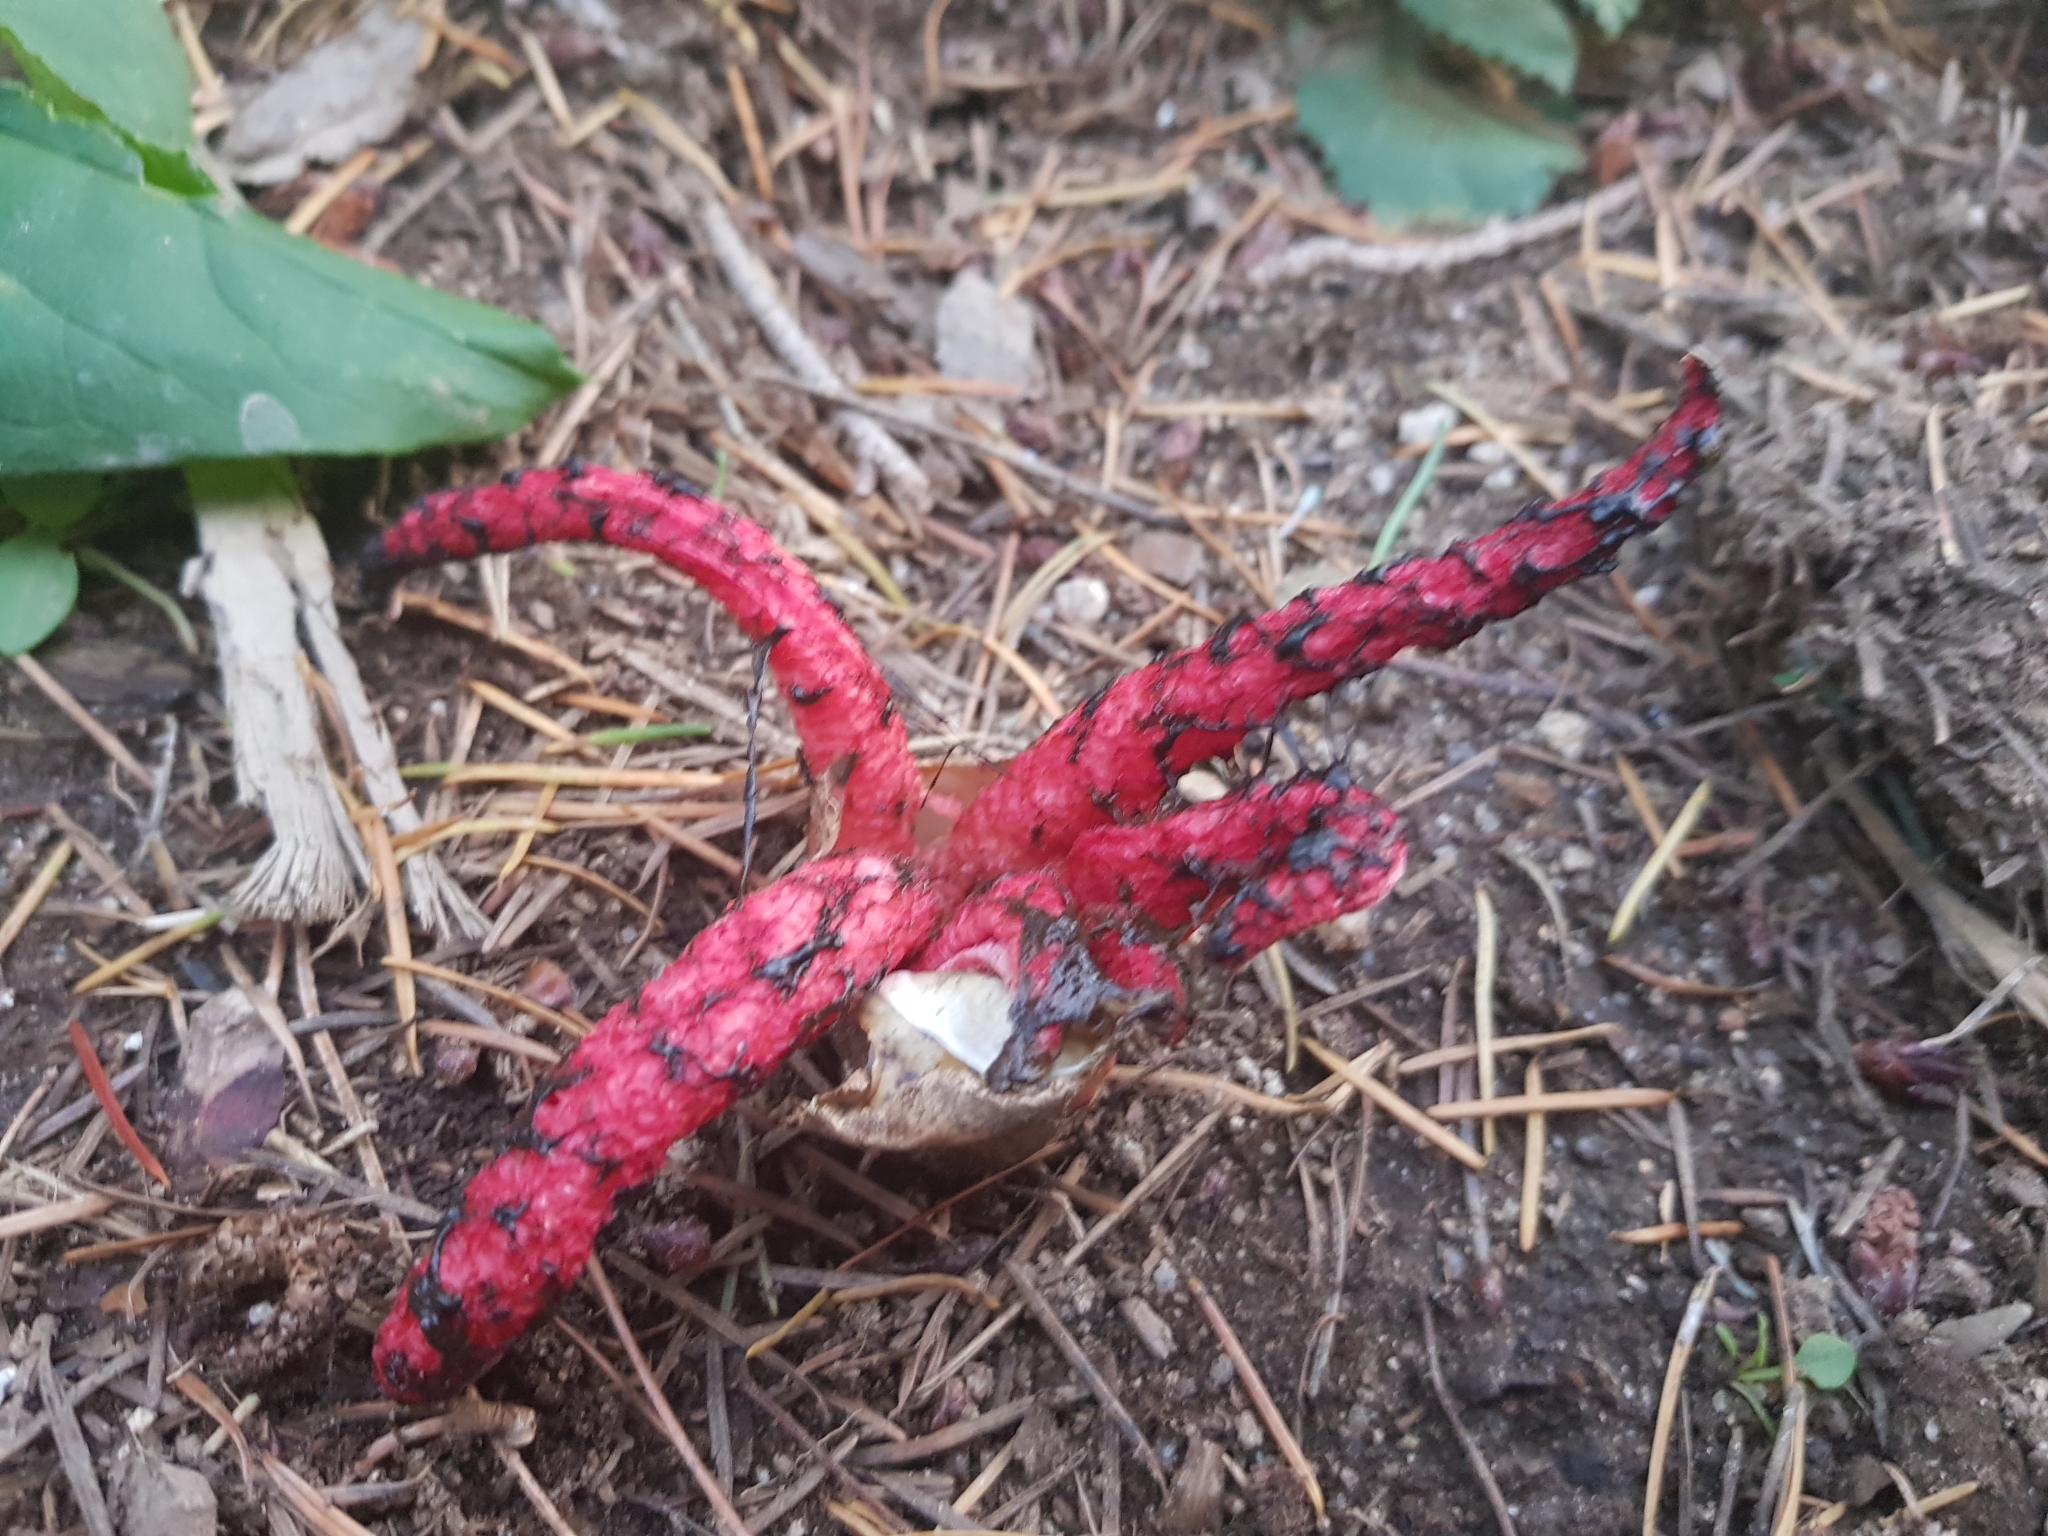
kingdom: Fungi
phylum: Basidiomycota
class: Agaricomycetes
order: Phallales
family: Phallaceae
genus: Clathrus
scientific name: Clathrus archeri
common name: Devil's fingers
